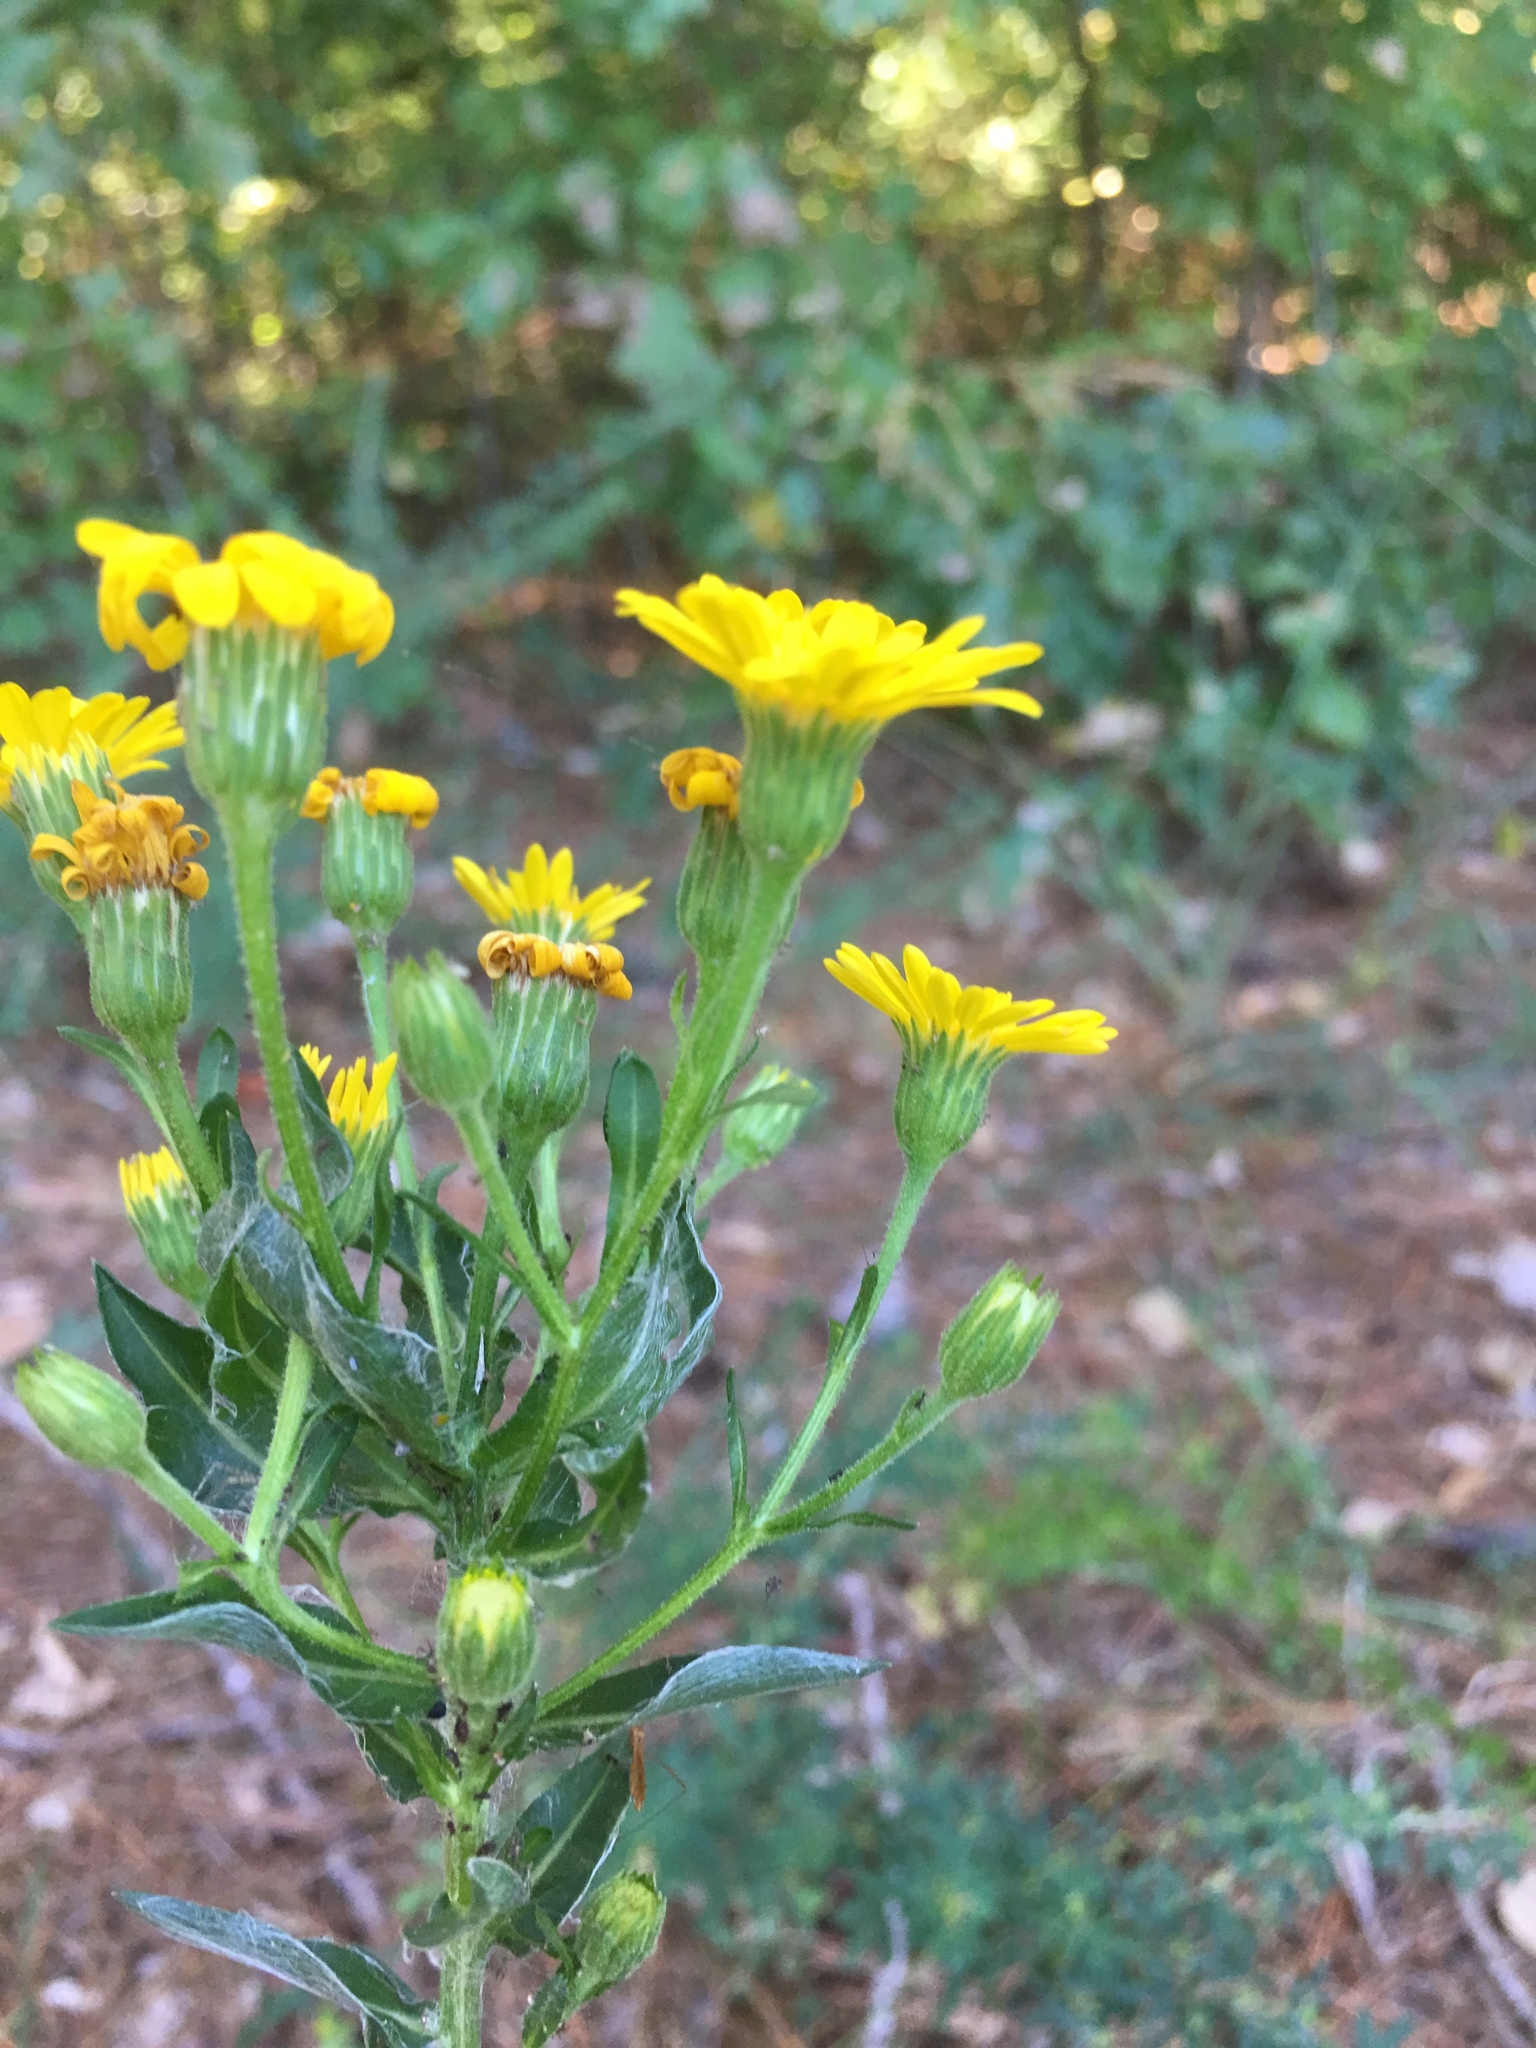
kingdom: Plantae
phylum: Tracheophyta
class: Magnoliopsida
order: Asterales
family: Asteraceae
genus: Chrysopsis
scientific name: Chrysopsis mariana
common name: Maryland golden-aster
